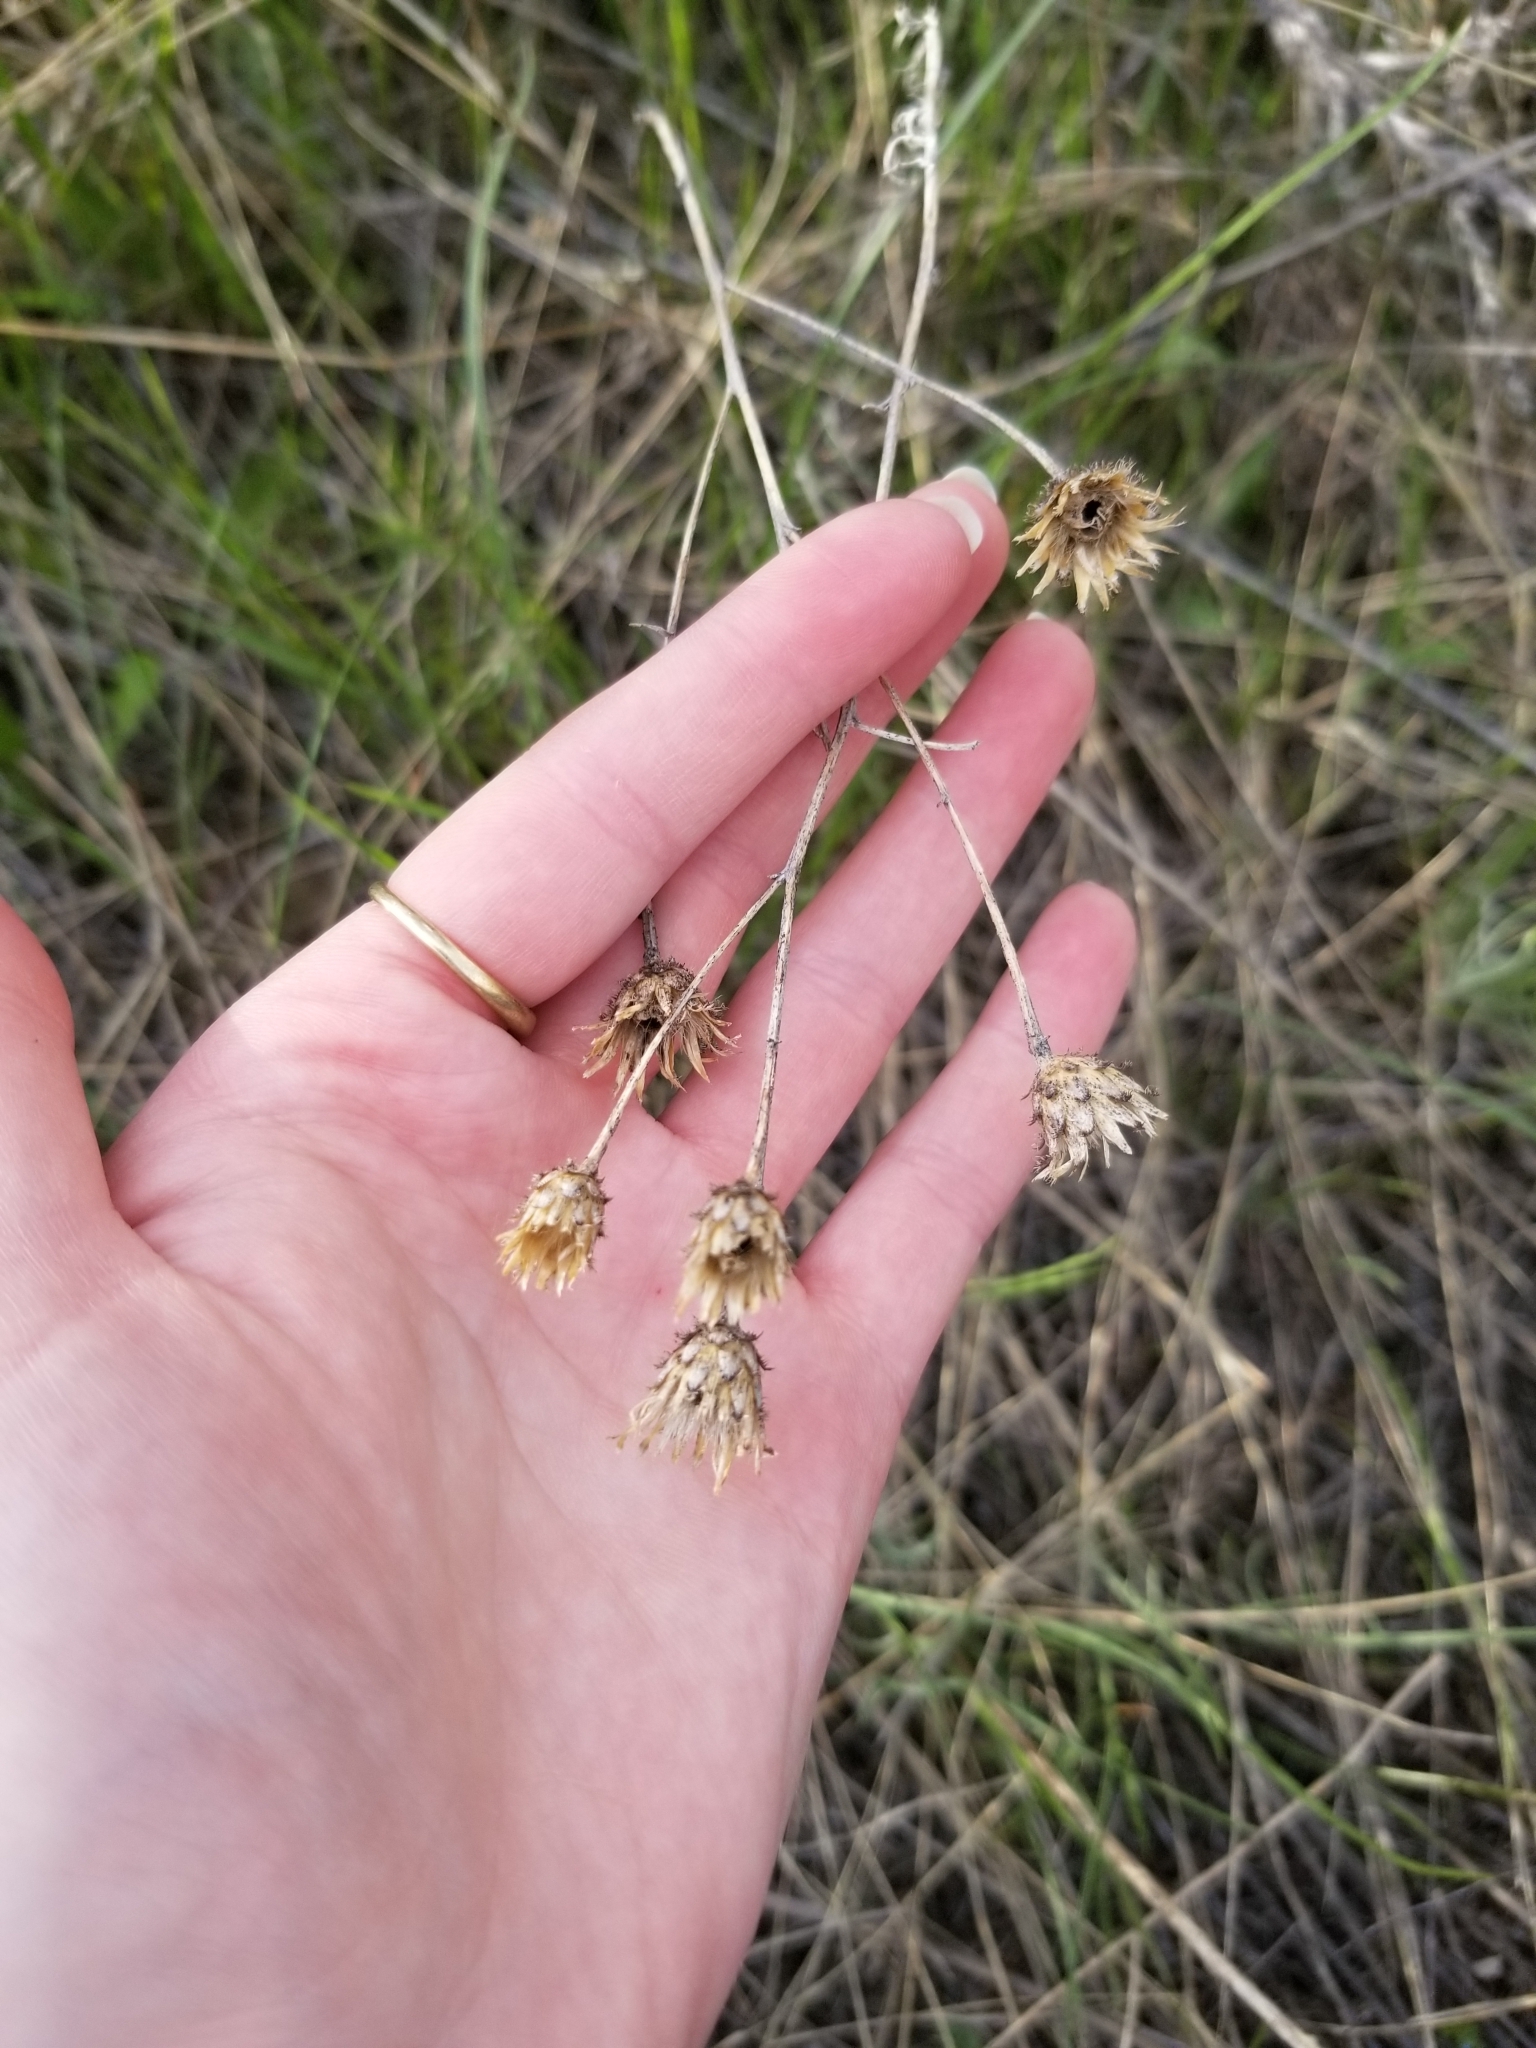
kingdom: Plantae
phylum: Tracheophyta
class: Magnoliopsida
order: Asterales
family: Asteraceae
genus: Centaurea
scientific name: Centaurea stoebe
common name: Spotted knapweed
